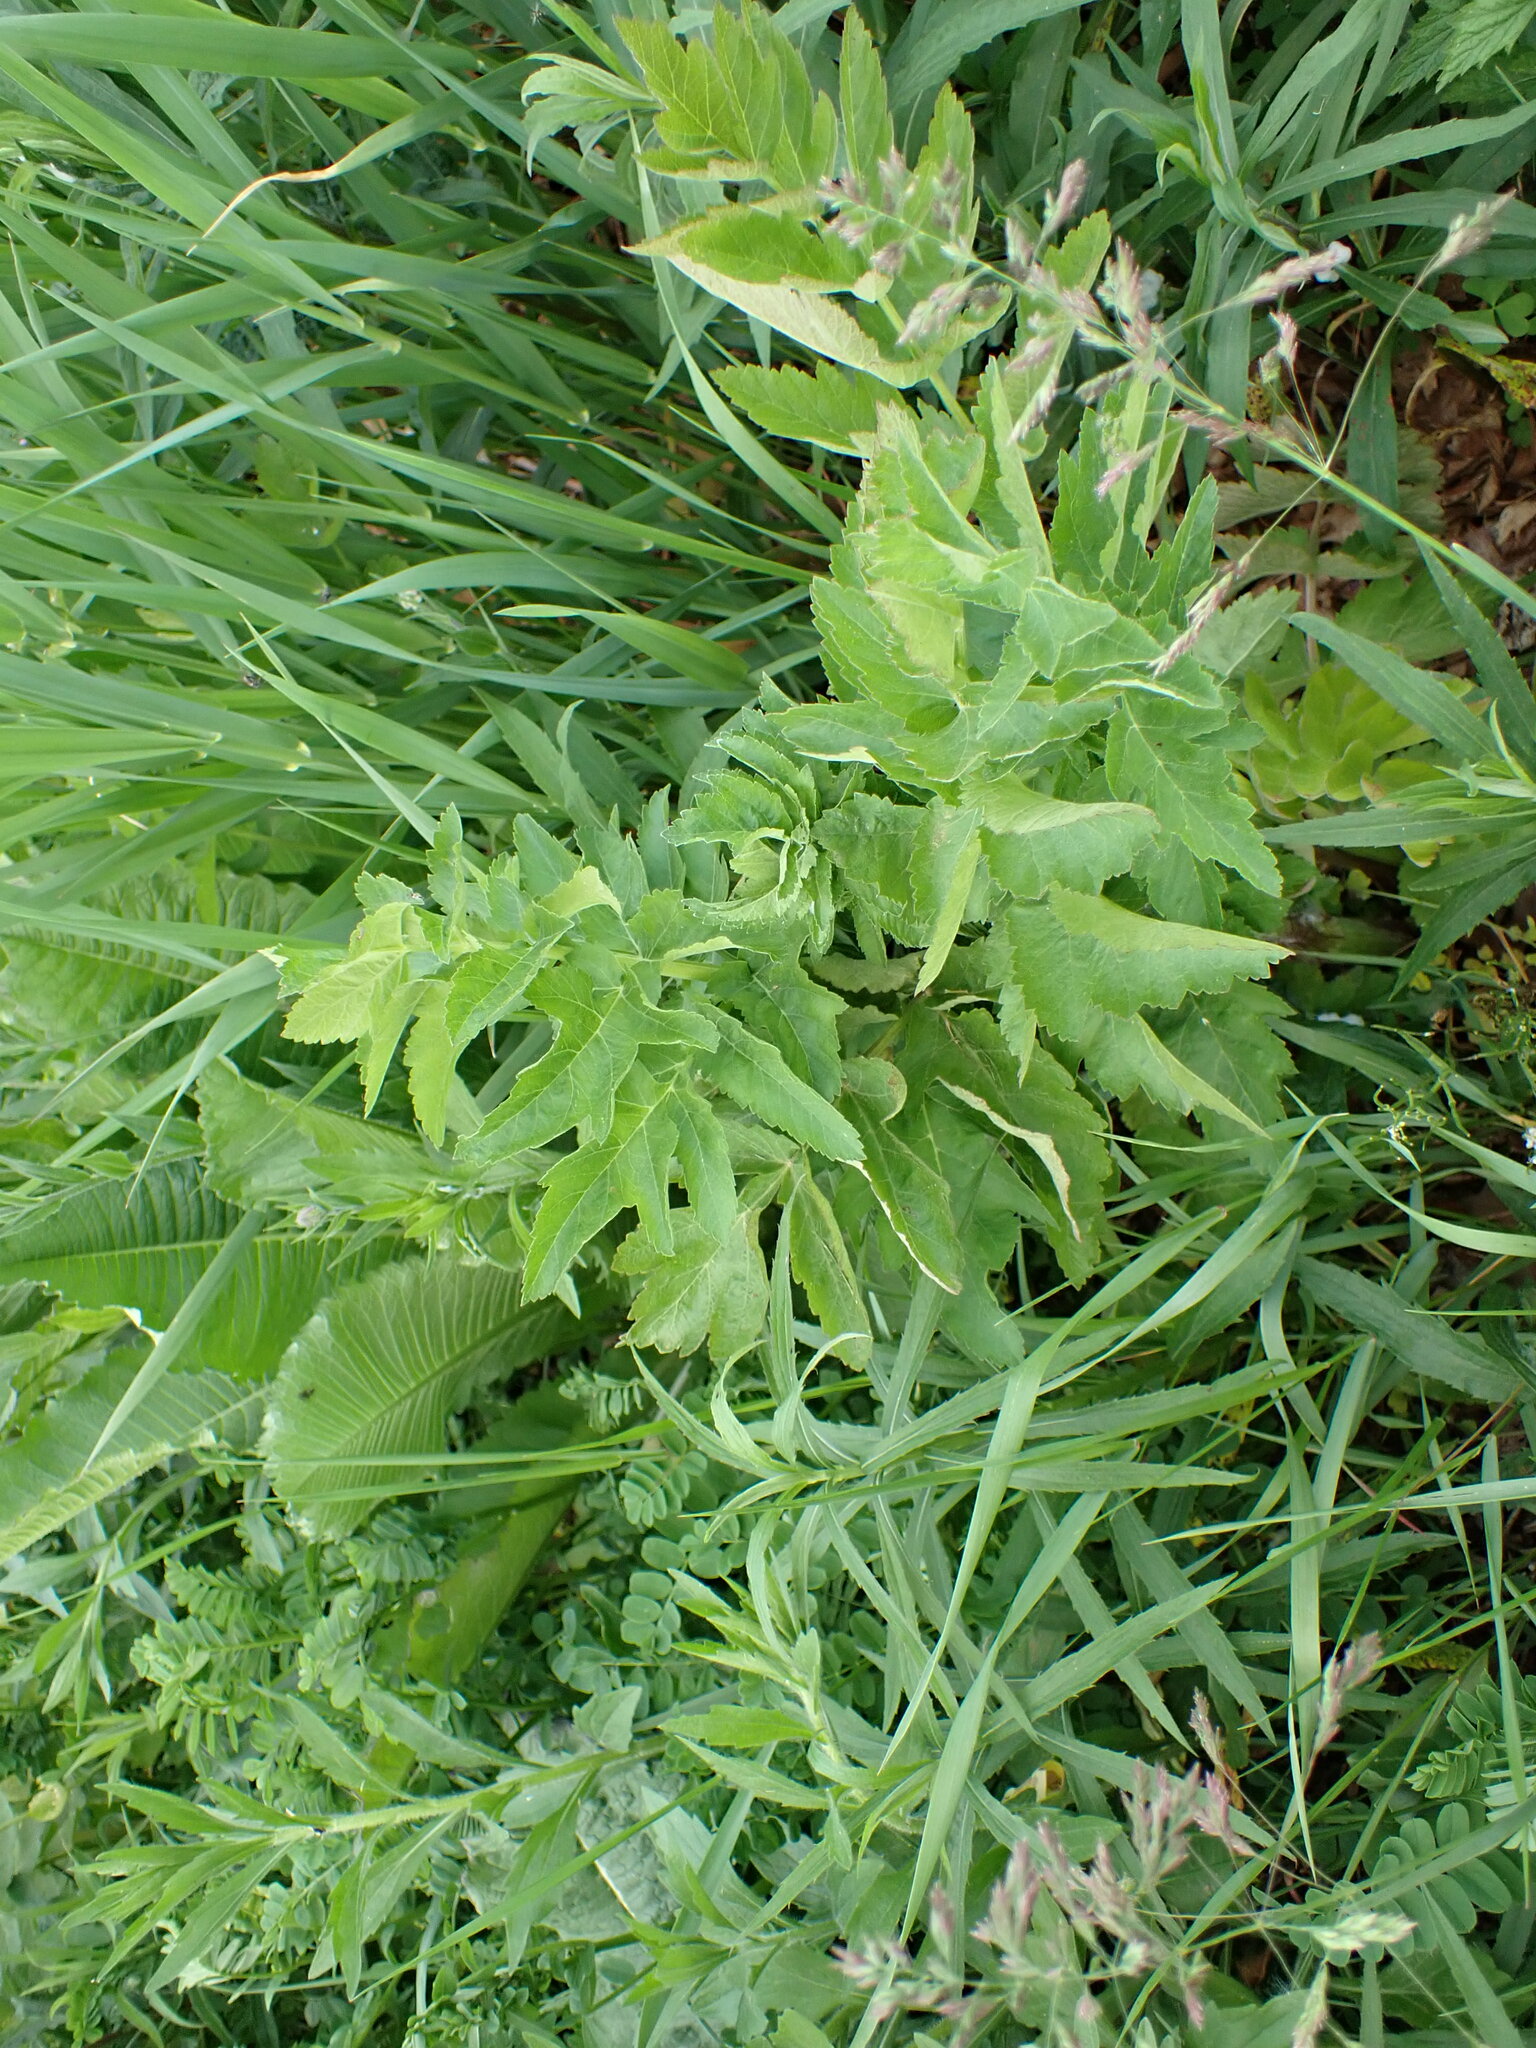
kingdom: Plantae
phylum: Tracheophyta
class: Magnoliopsida
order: Apiales
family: Apiaceae
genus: Pastinaca
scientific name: Pastinaca sativa
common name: Wild parsnip
